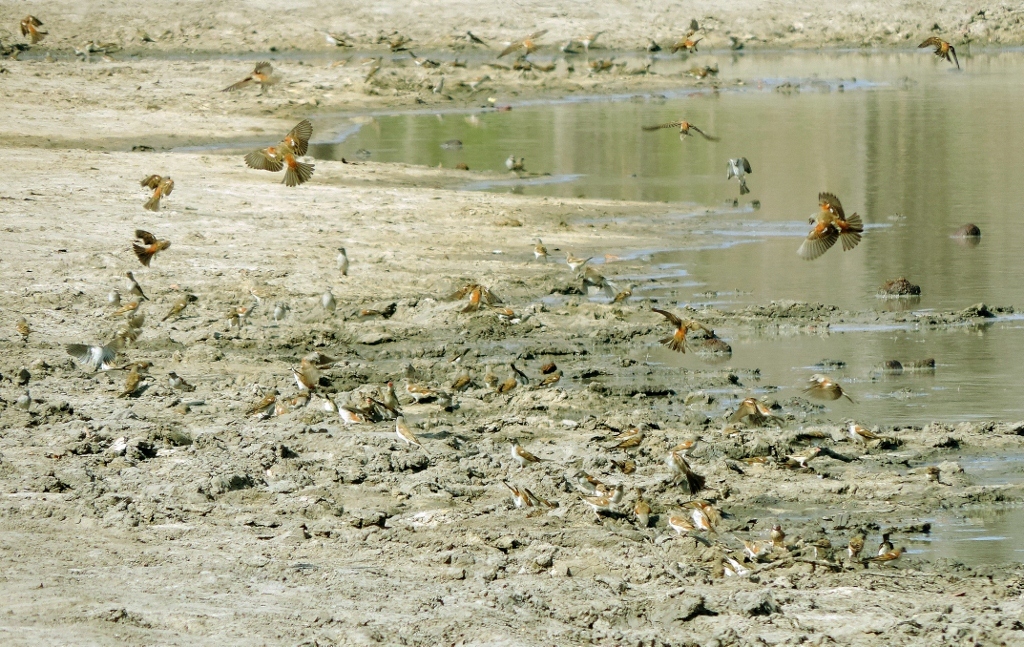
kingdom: Animalia
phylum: Chordata
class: Aves
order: Passeriformes
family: Passeridae
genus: Passer
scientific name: Passer diffusus
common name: Southern grey-headed sparrow
